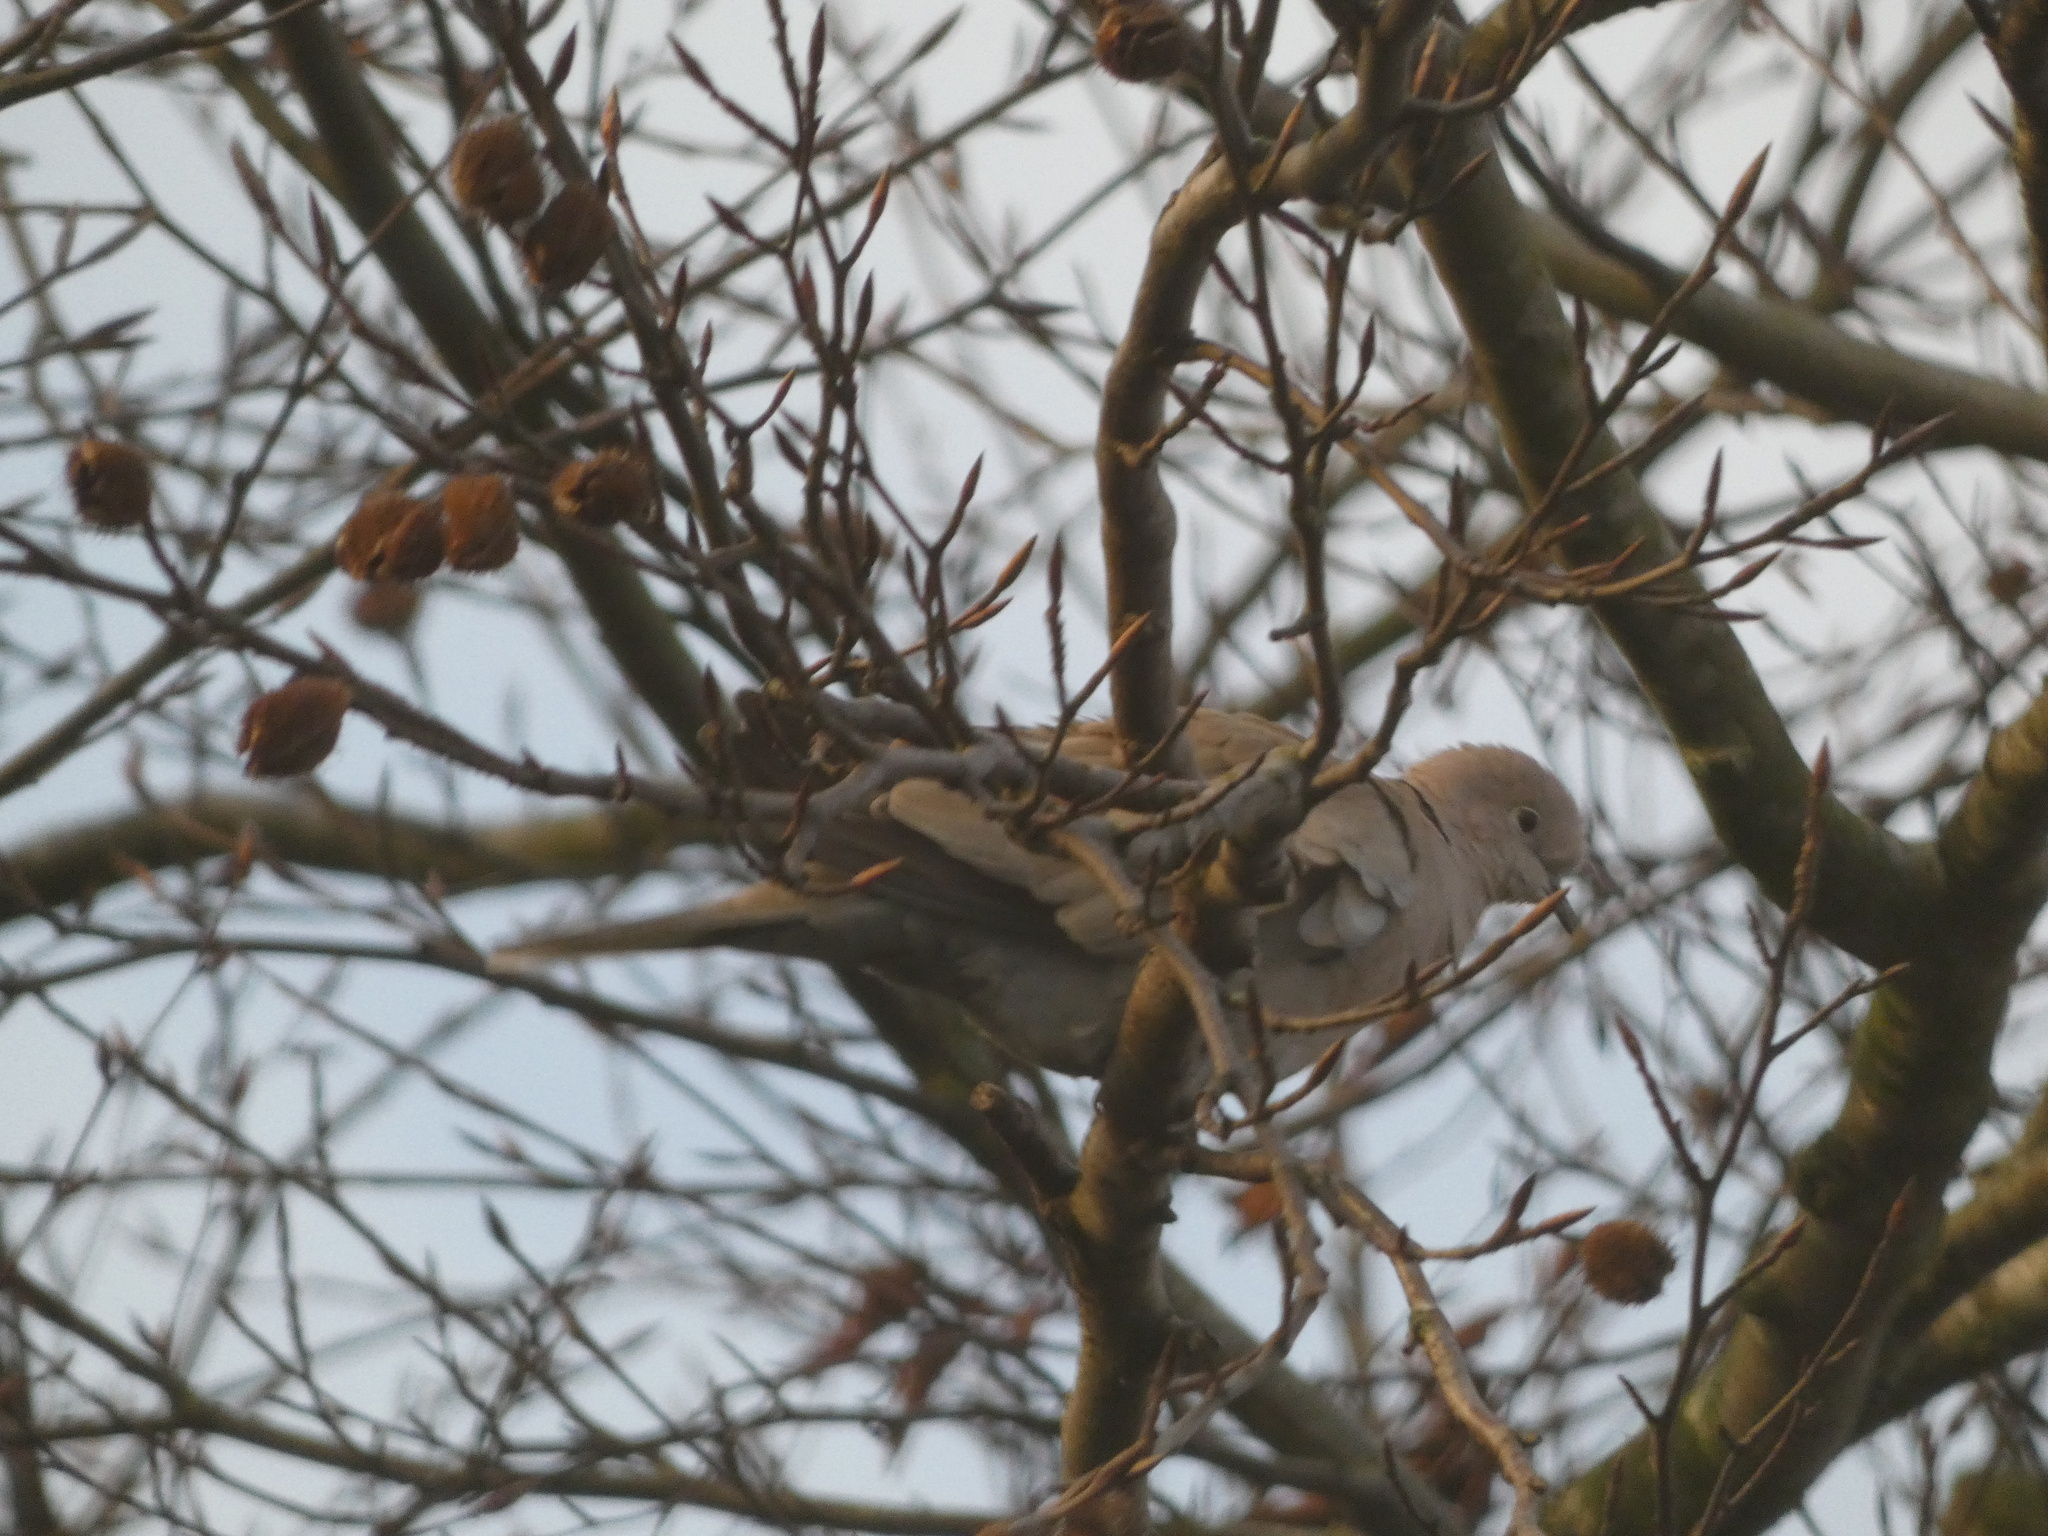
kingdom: Animalia
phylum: Chordata
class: Aves
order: Columbiformes
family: Columbidae
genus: Streptopelia
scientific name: Streptopelia decaocto
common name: Eurasian collared dove
